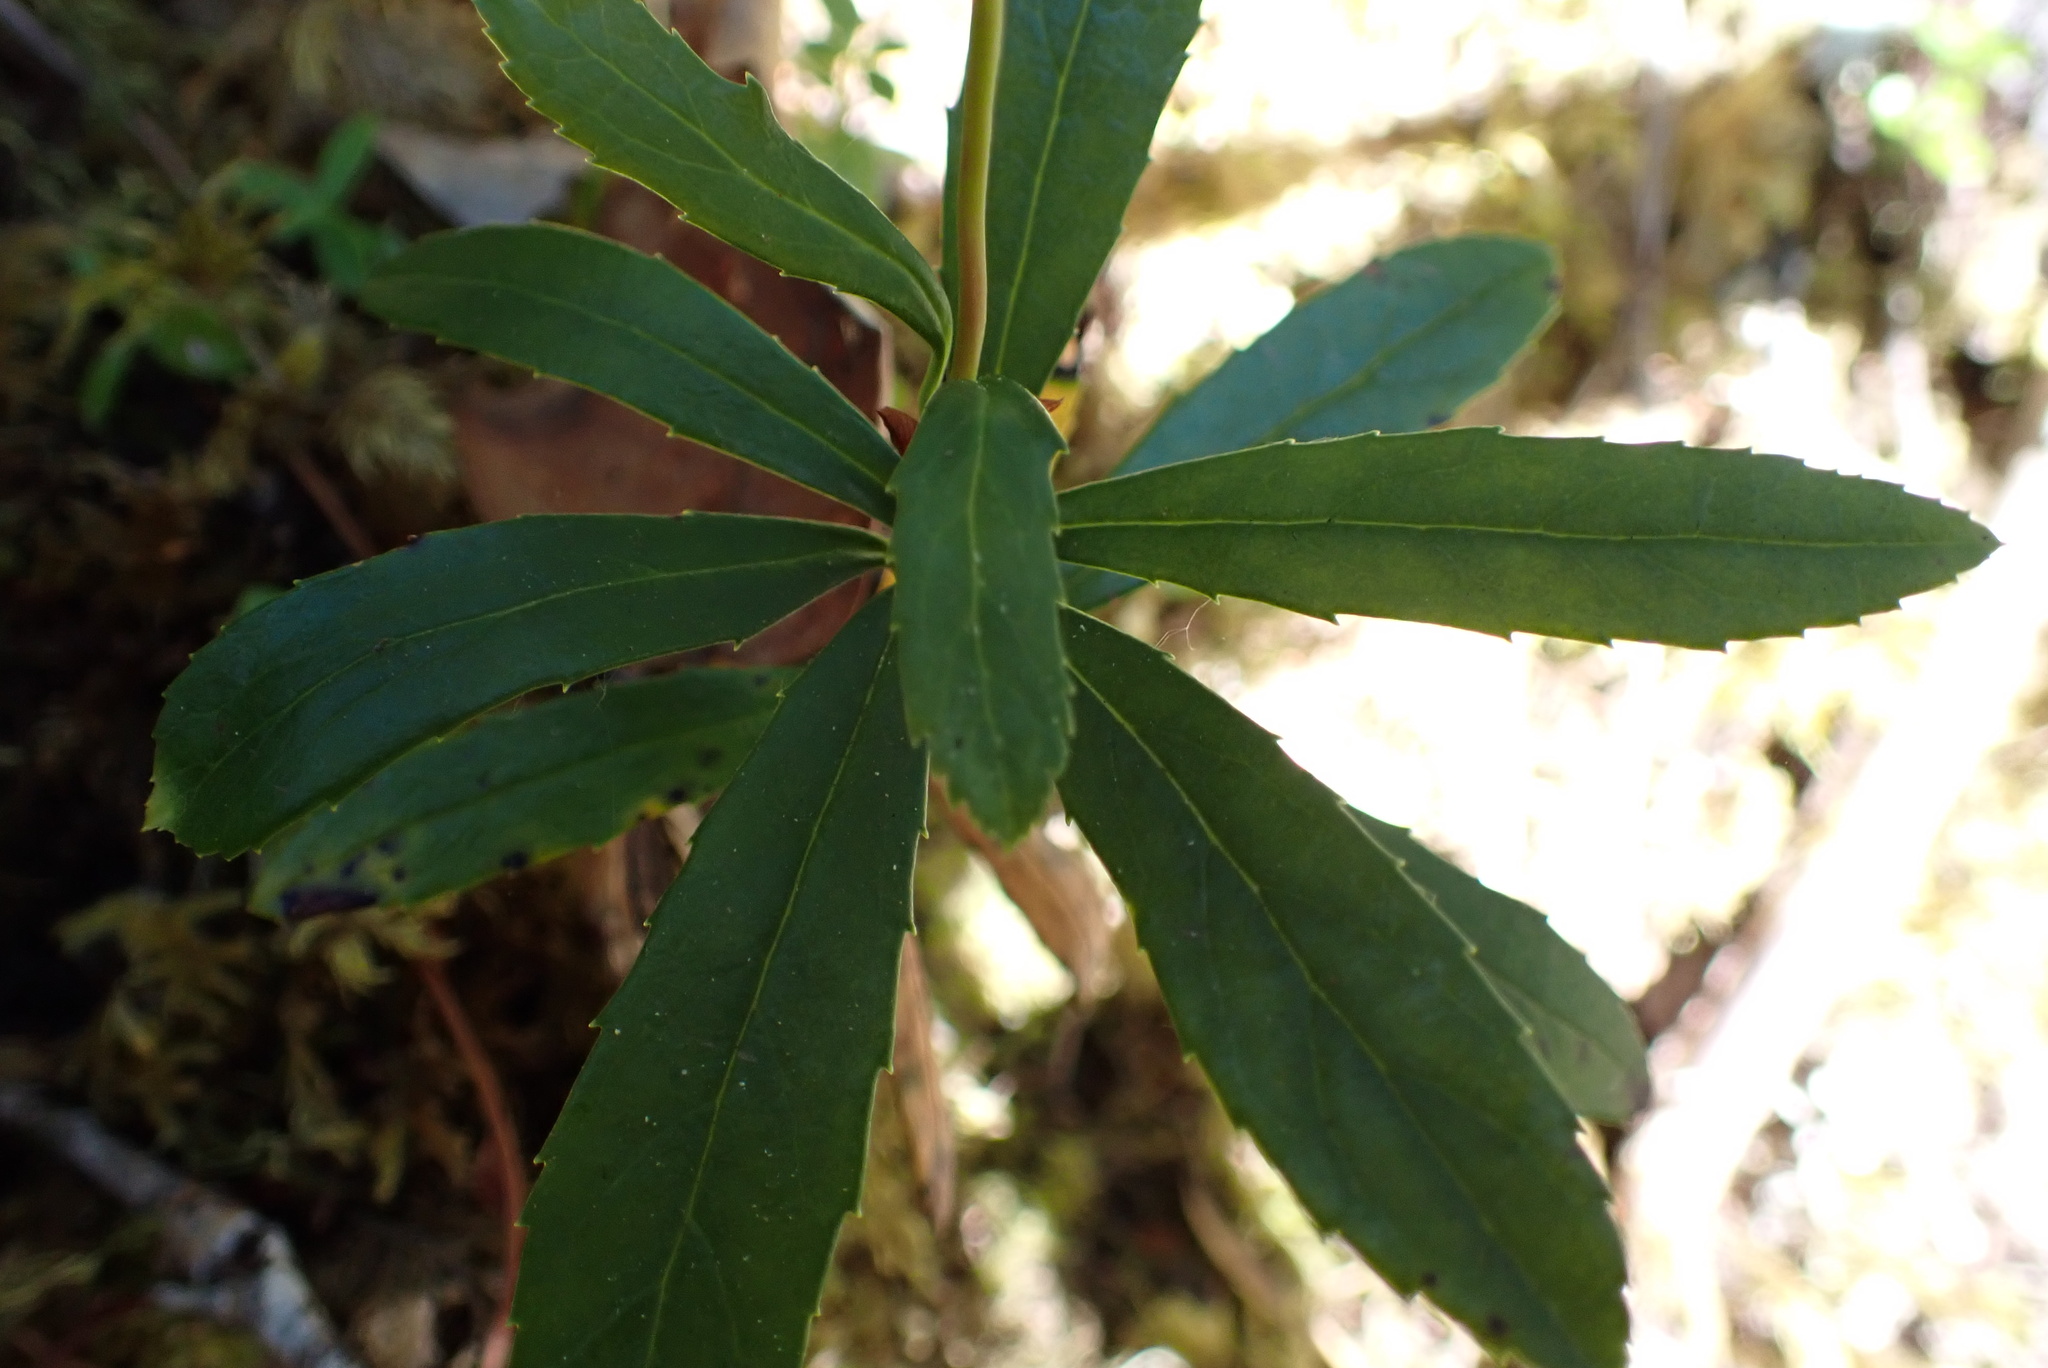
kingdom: Plantae
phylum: Tracheophyta
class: Magnoliopsida
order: Ericales
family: Ericaceae
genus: Chimaphila
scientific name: Chimaphila umbellata
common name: Pipsissewa
